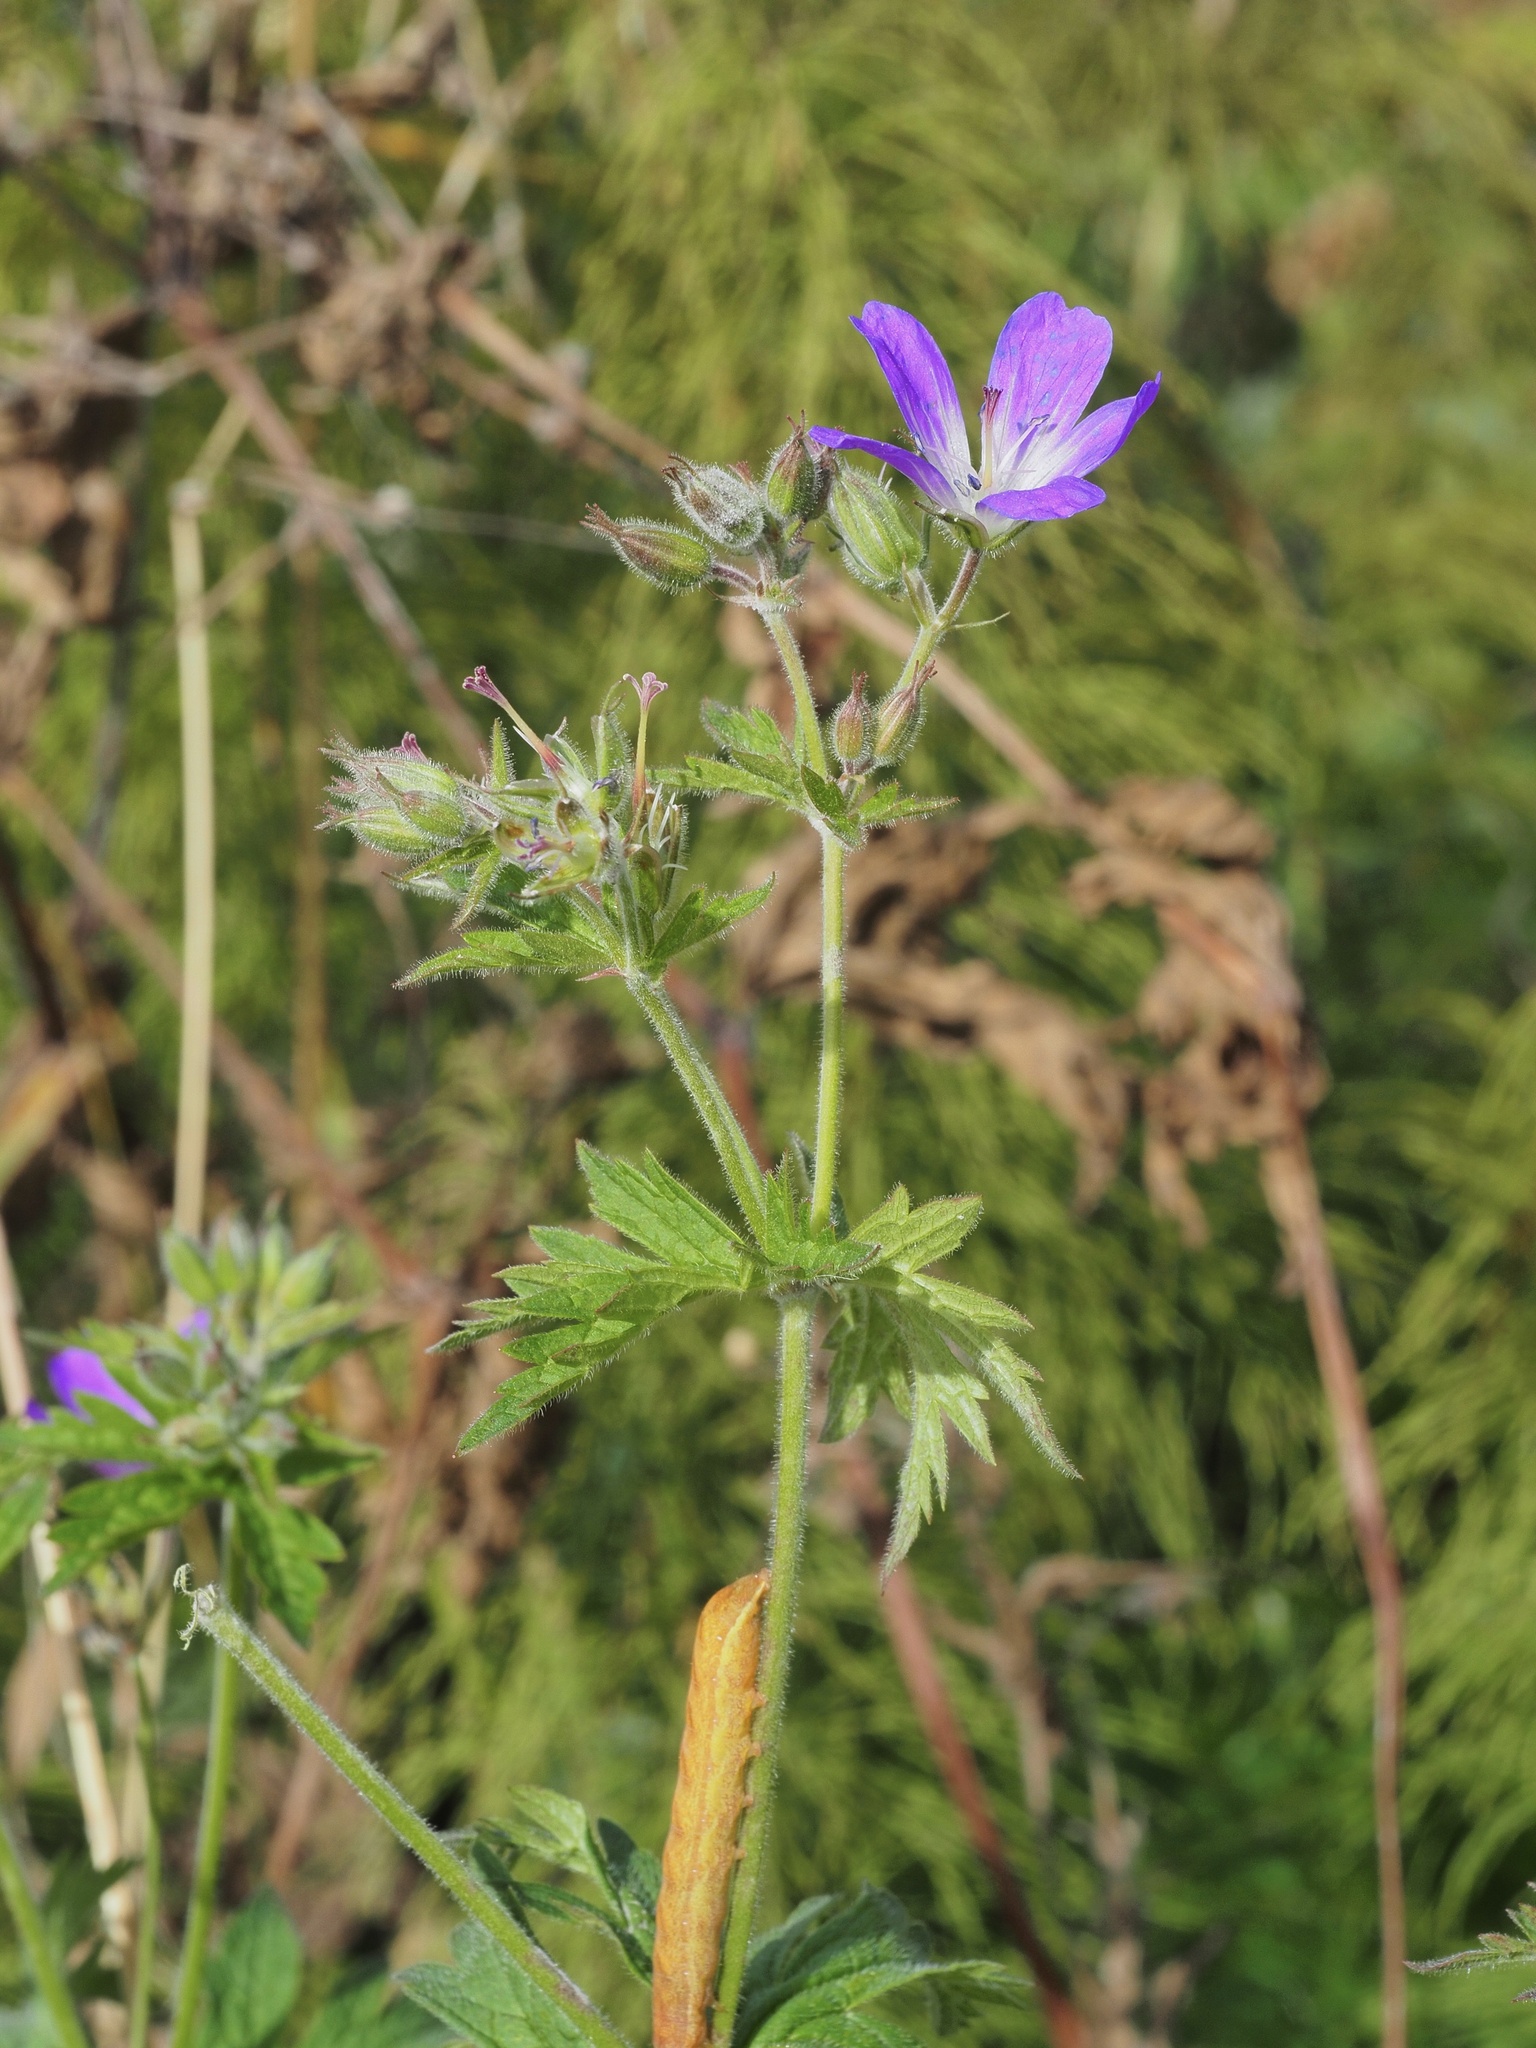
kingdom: Plantae
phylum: Tracheophyta
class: Magnoliopsida
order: Geraniales
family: Geraniaceae
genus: Geranium
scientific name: Geranium sylvaticum
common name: Wood crane's-bill
